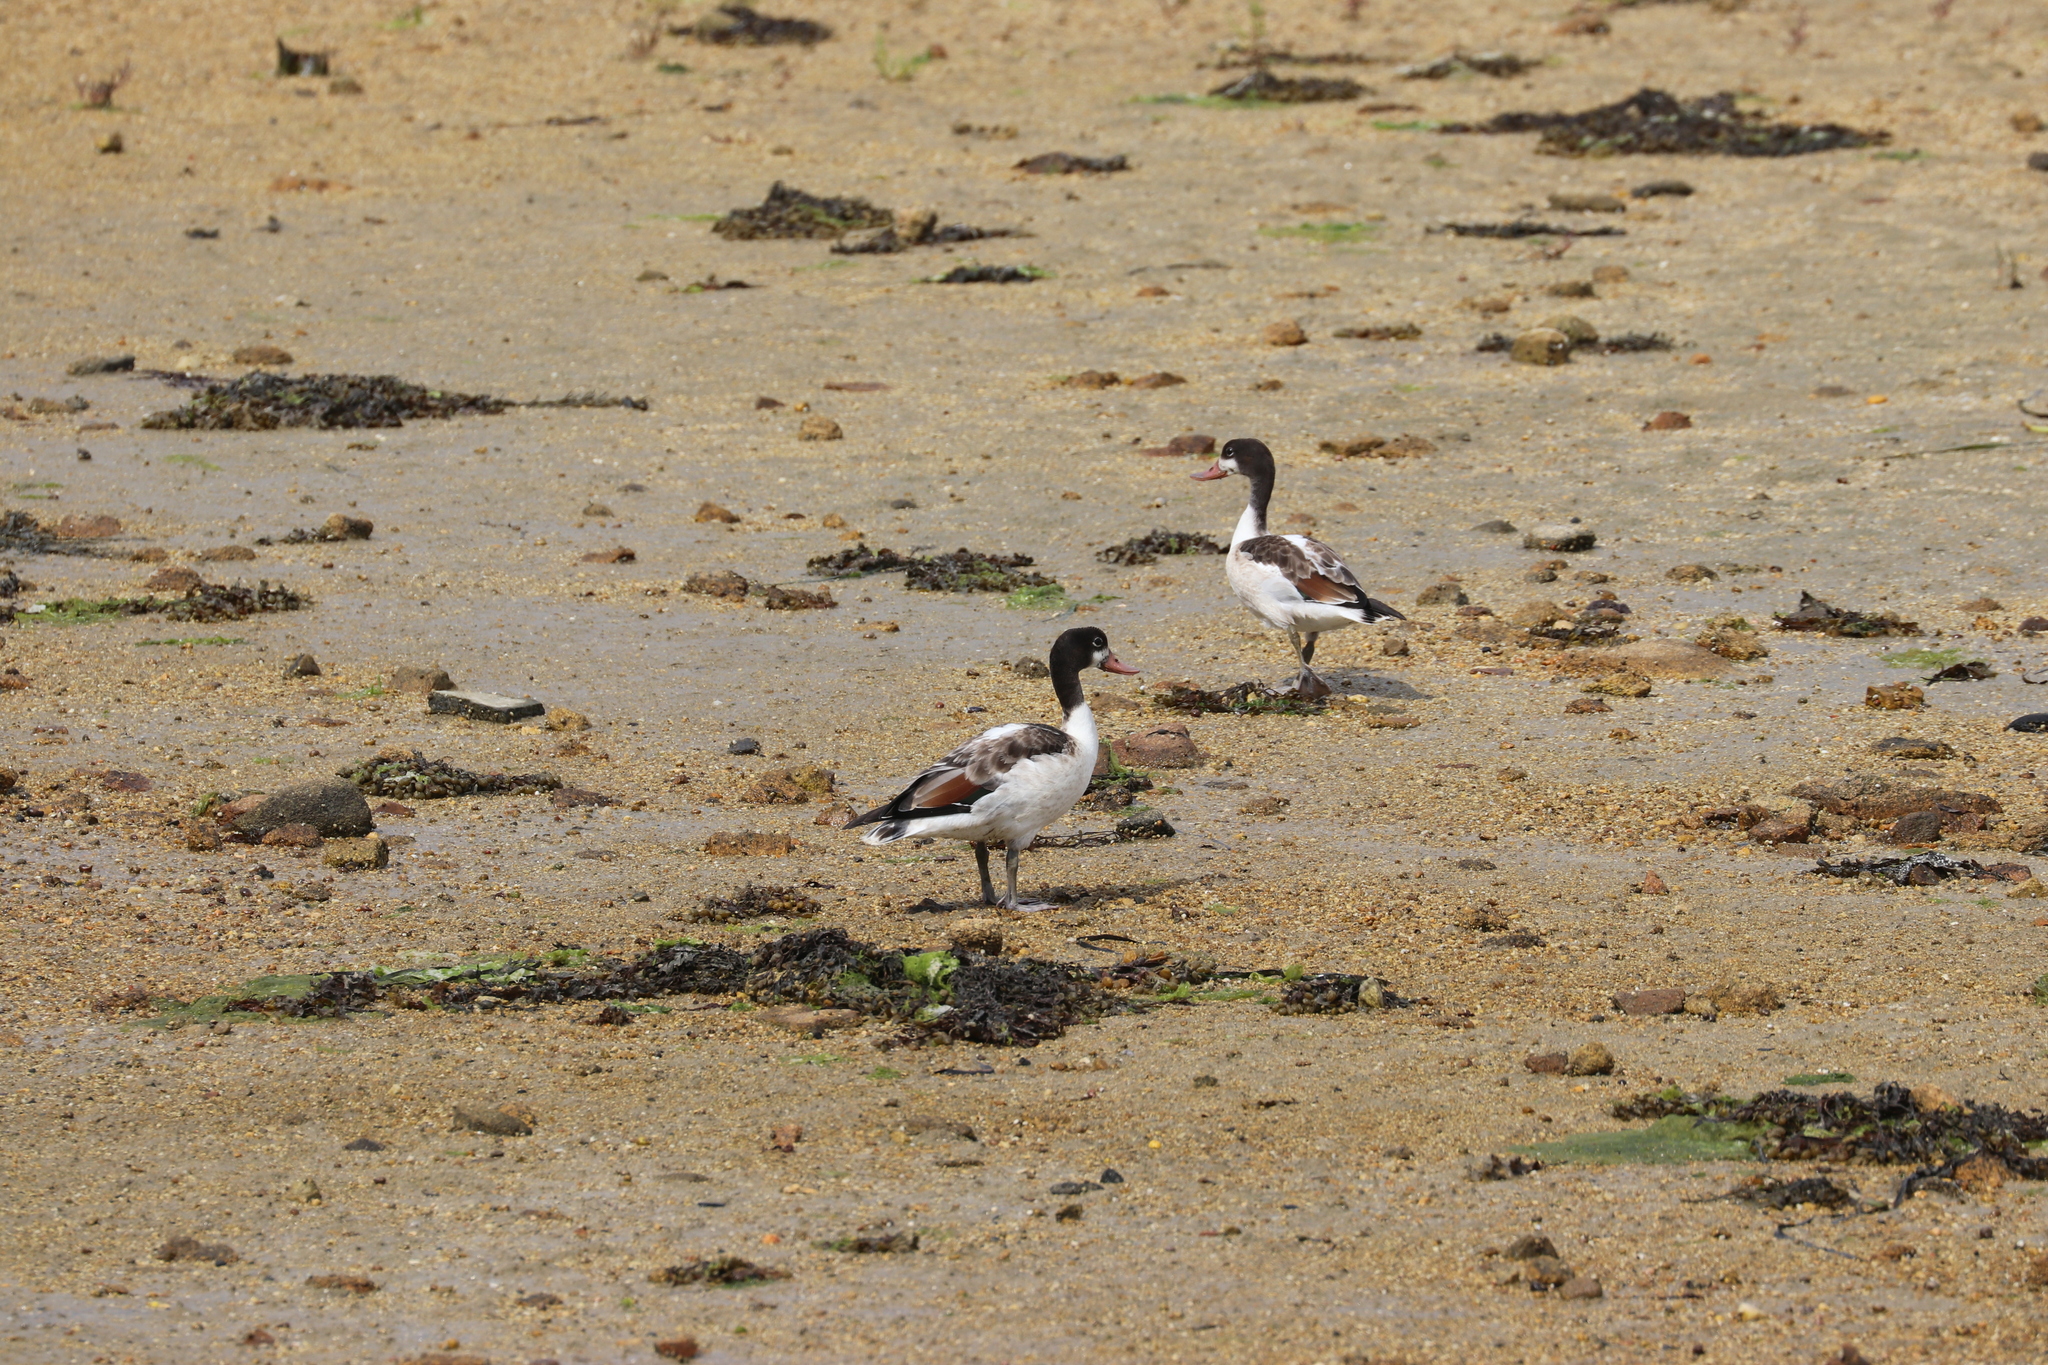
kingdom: Animalia
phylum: Chordata
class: Aves
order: Anseriformes
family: Anatidae
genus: Tadorna
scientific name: Tadorna tadorna
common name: Common shelduck
